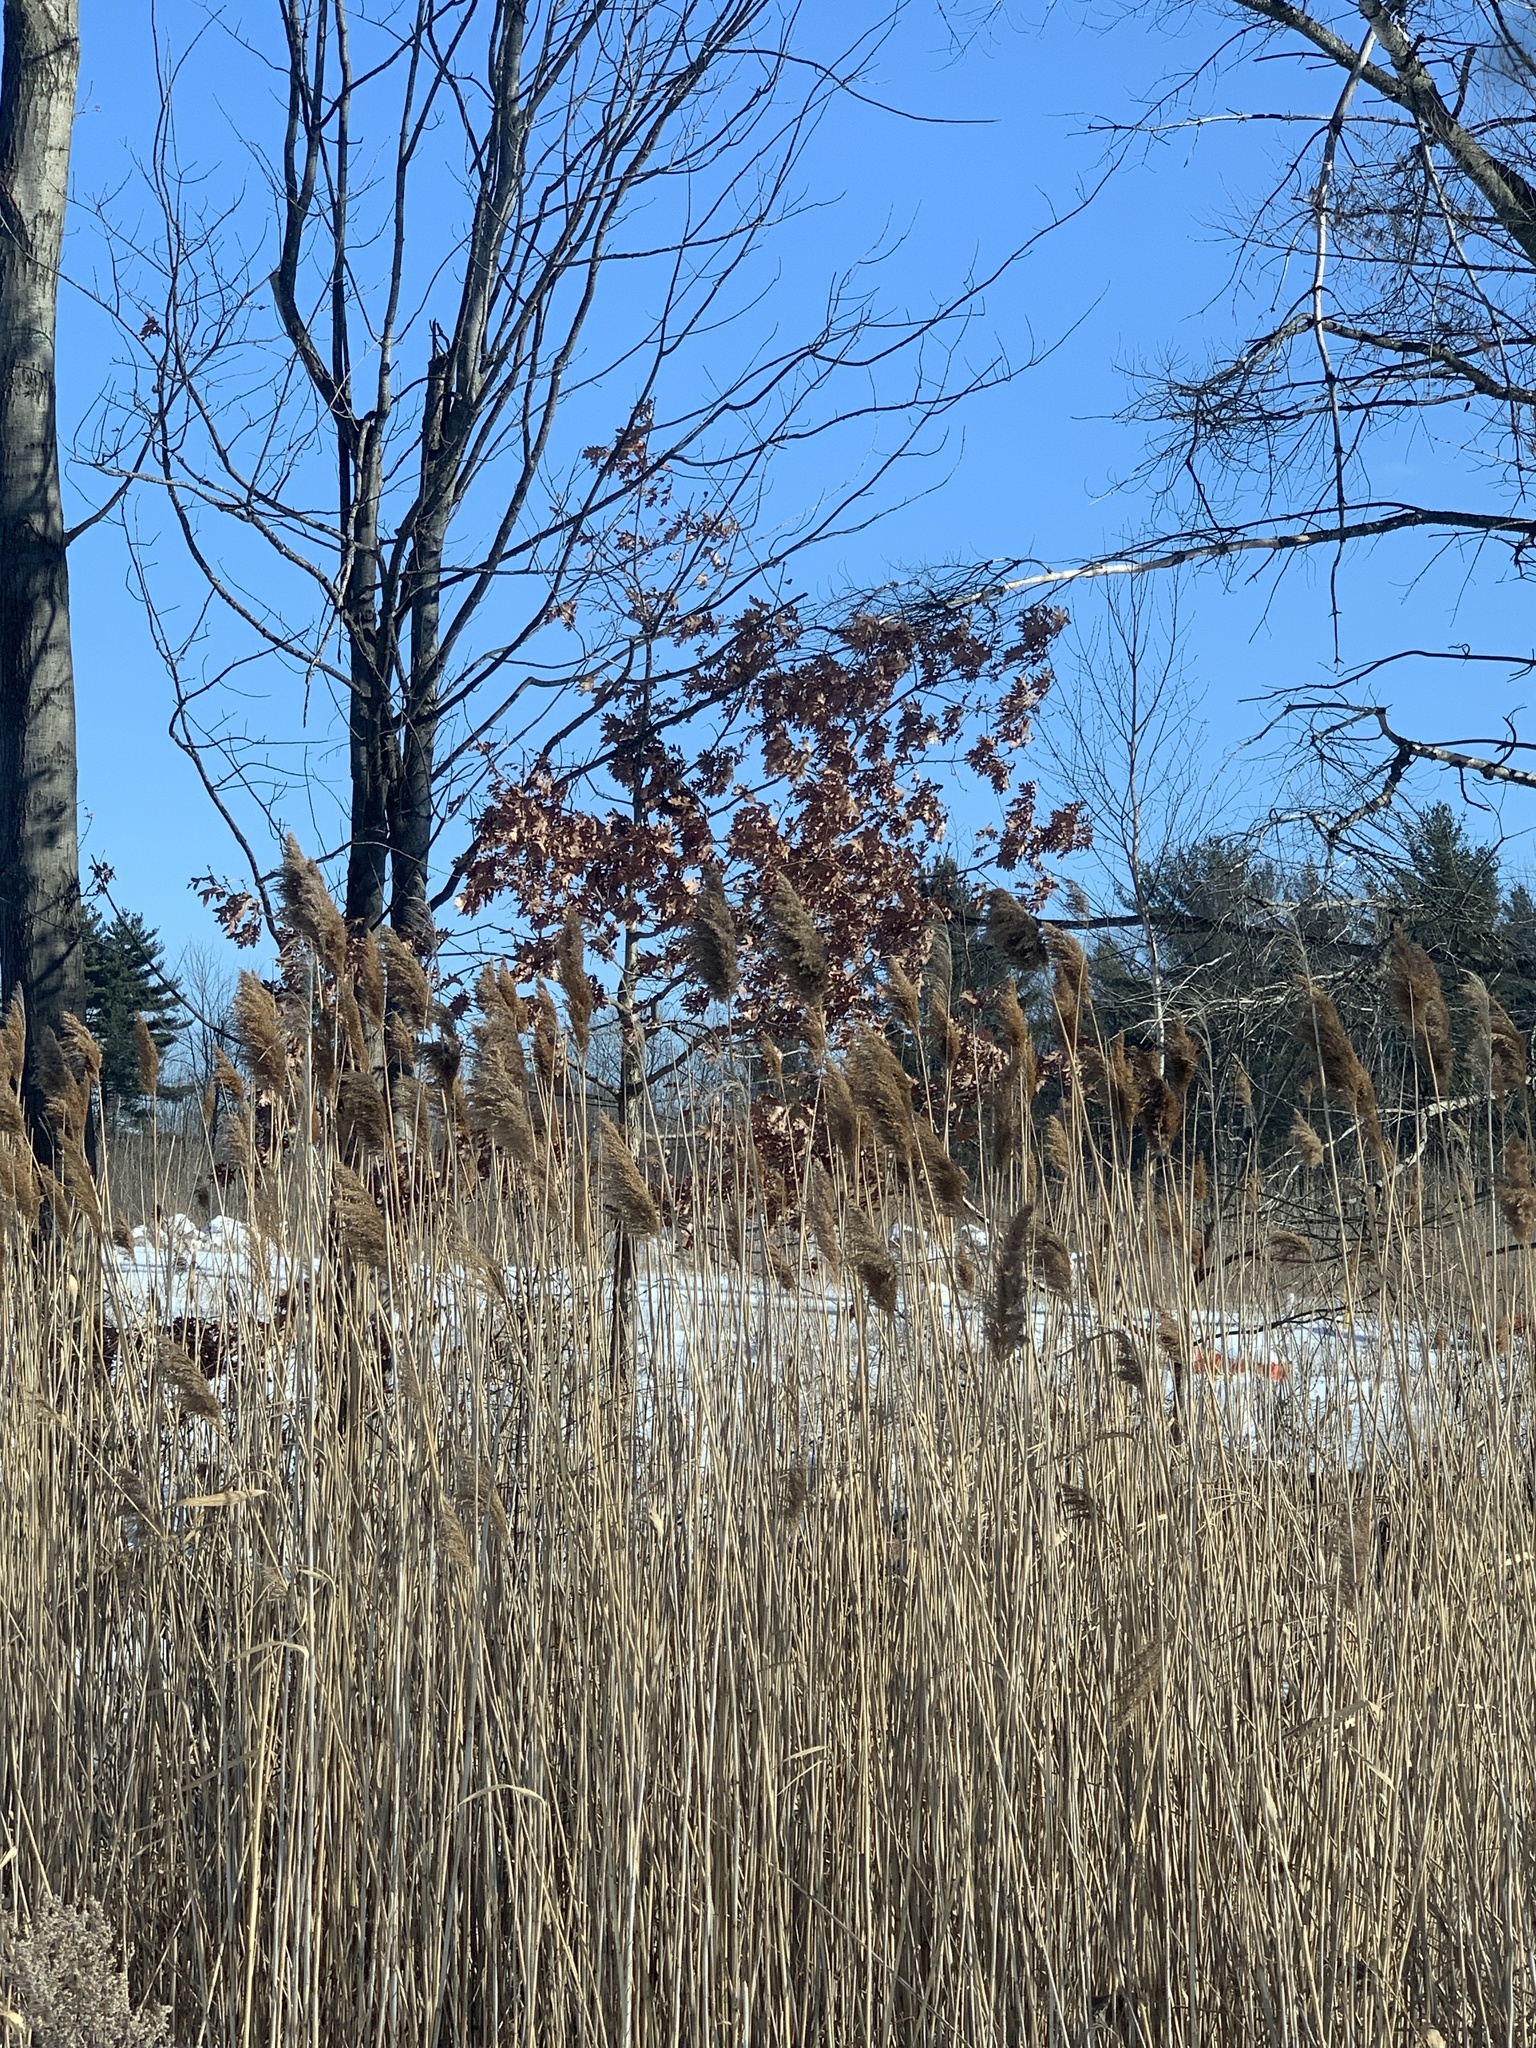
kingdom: Plantae
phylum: Tracheophyta
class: Liliopsida
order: Poales
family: Poaceae
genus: Phragmites
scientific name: Phragmites australis
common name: Common reed
